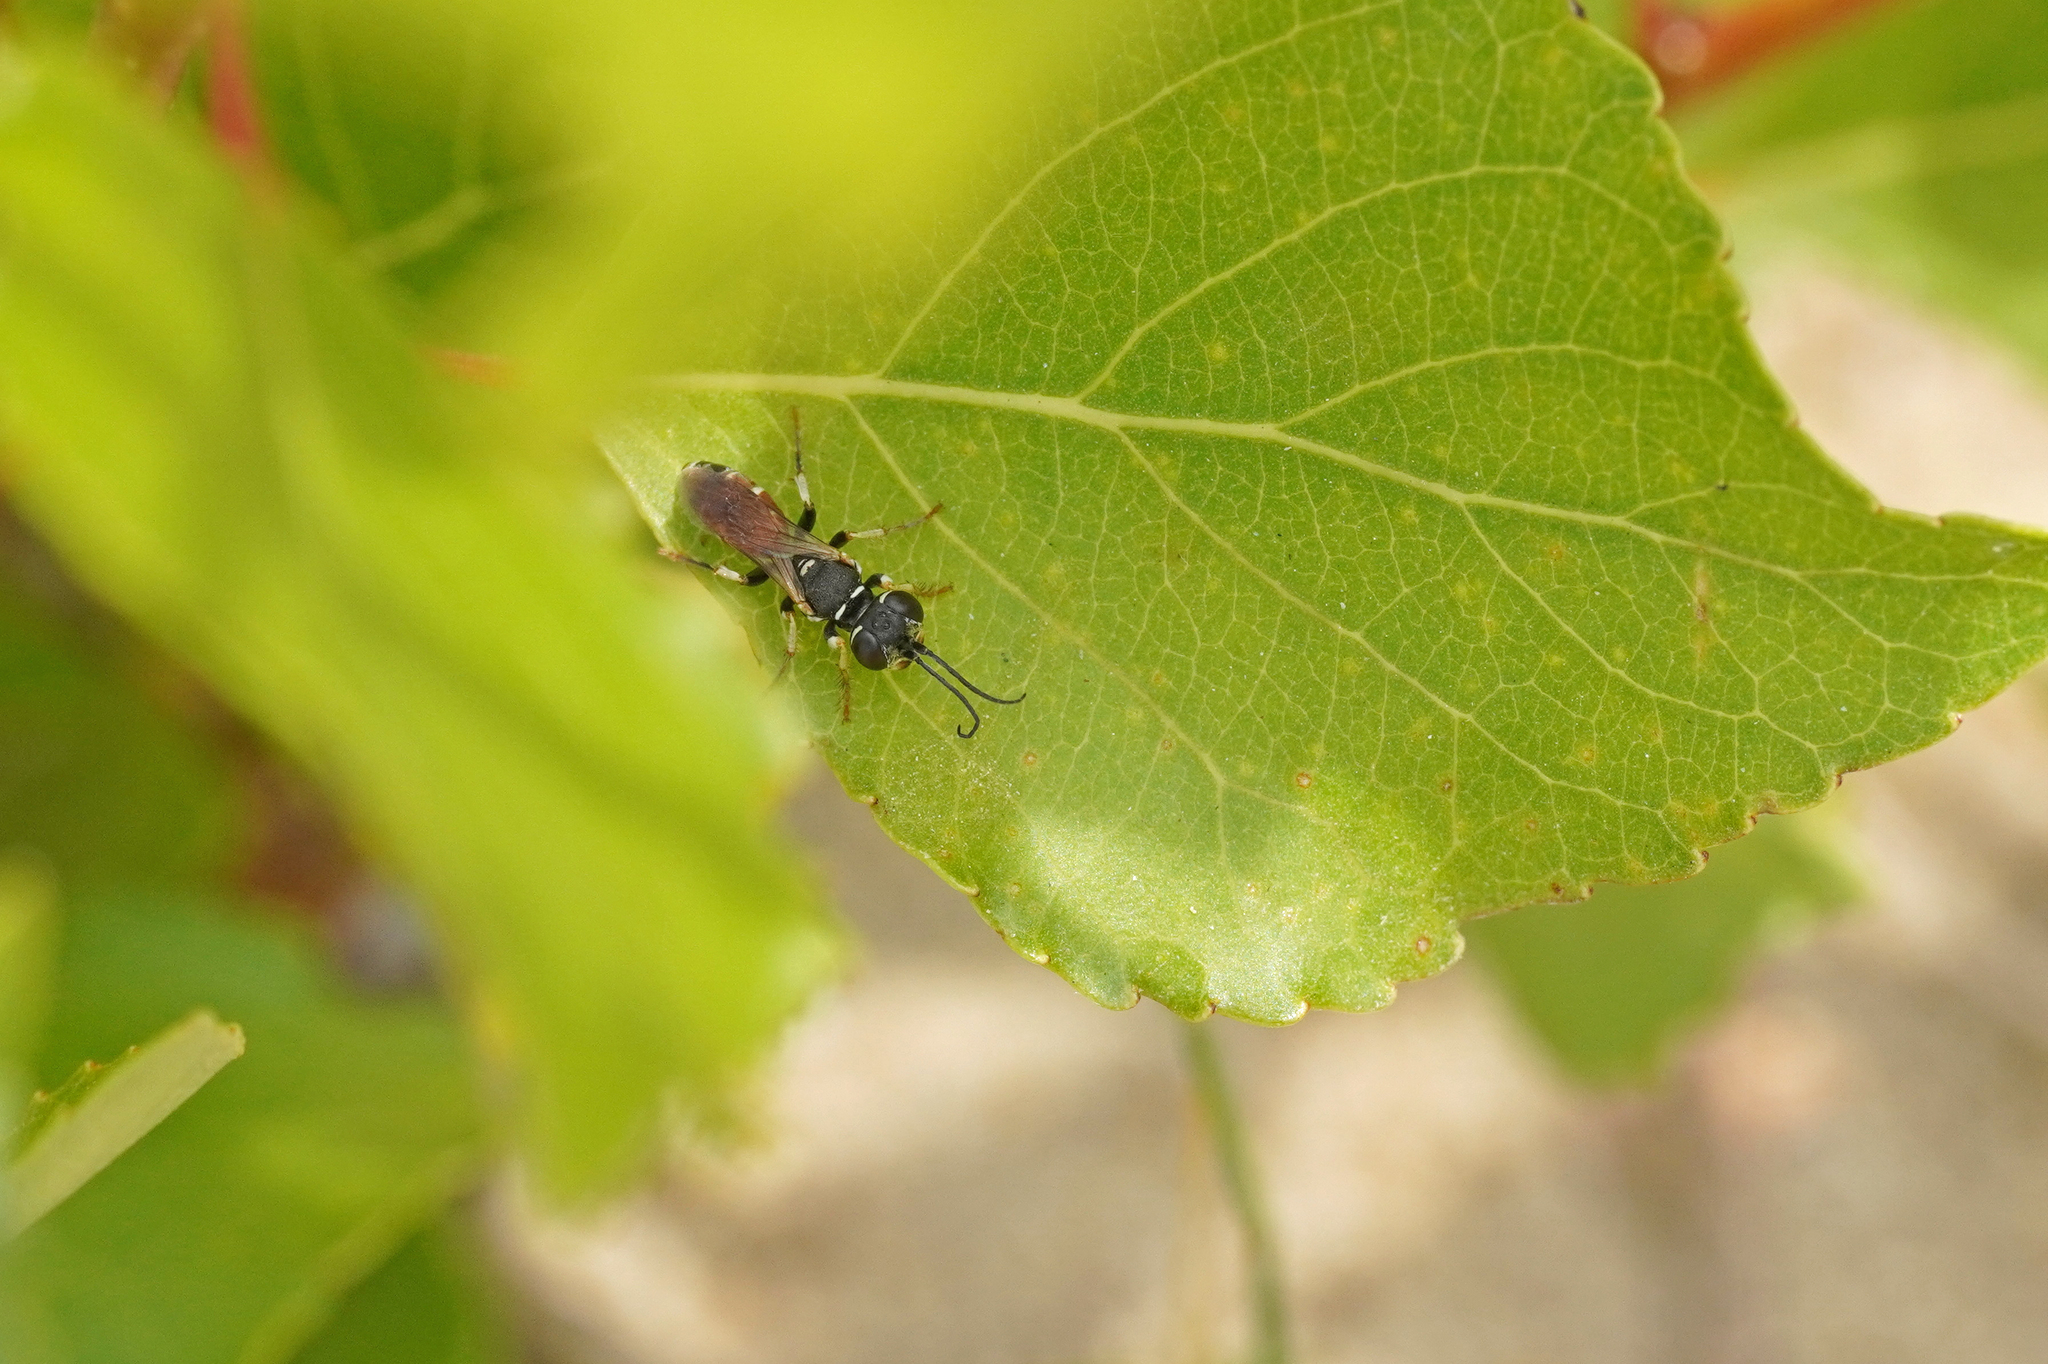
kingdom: Animalia
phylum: Arthropoda
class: Insecta
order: Hymenoptera
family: Crabronidae
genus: Dinetus
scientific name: Dinetus pictus
